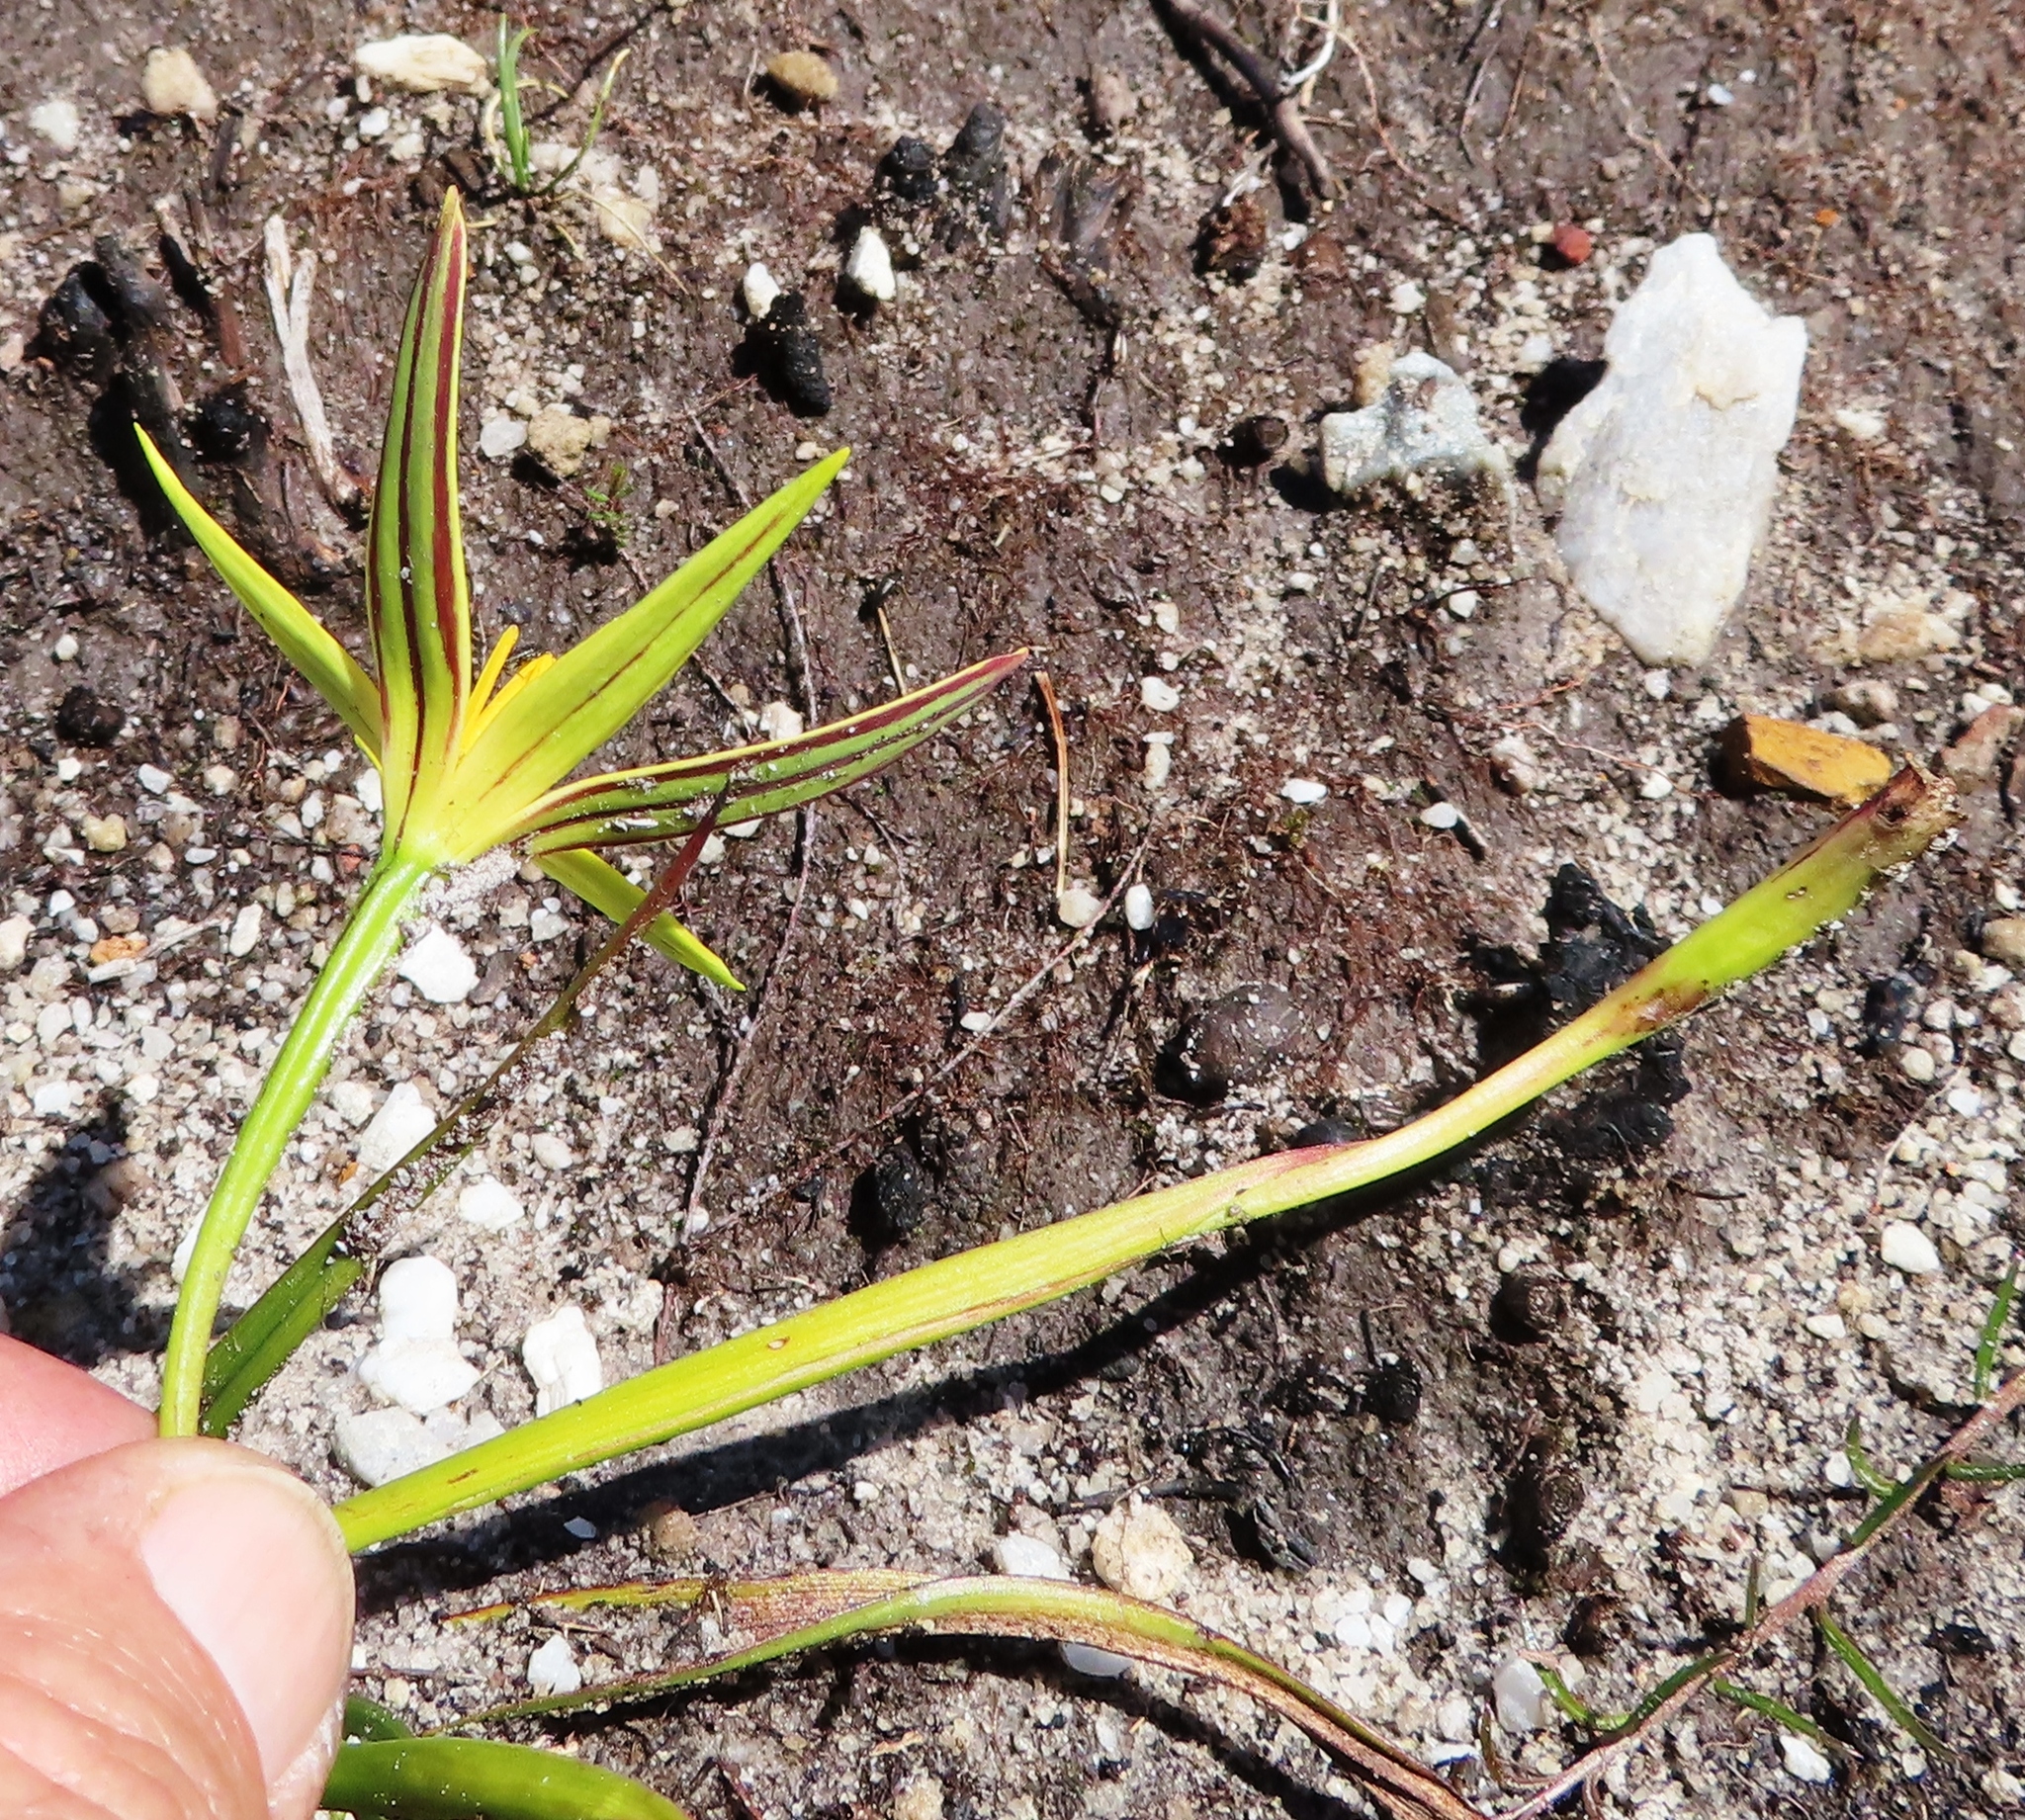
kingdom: Plantae
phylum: Tracheophyta
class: Liliopsida
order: Asparagales
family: Hypoxidaceae
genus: Pauridia
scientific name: Pauridia capensis
